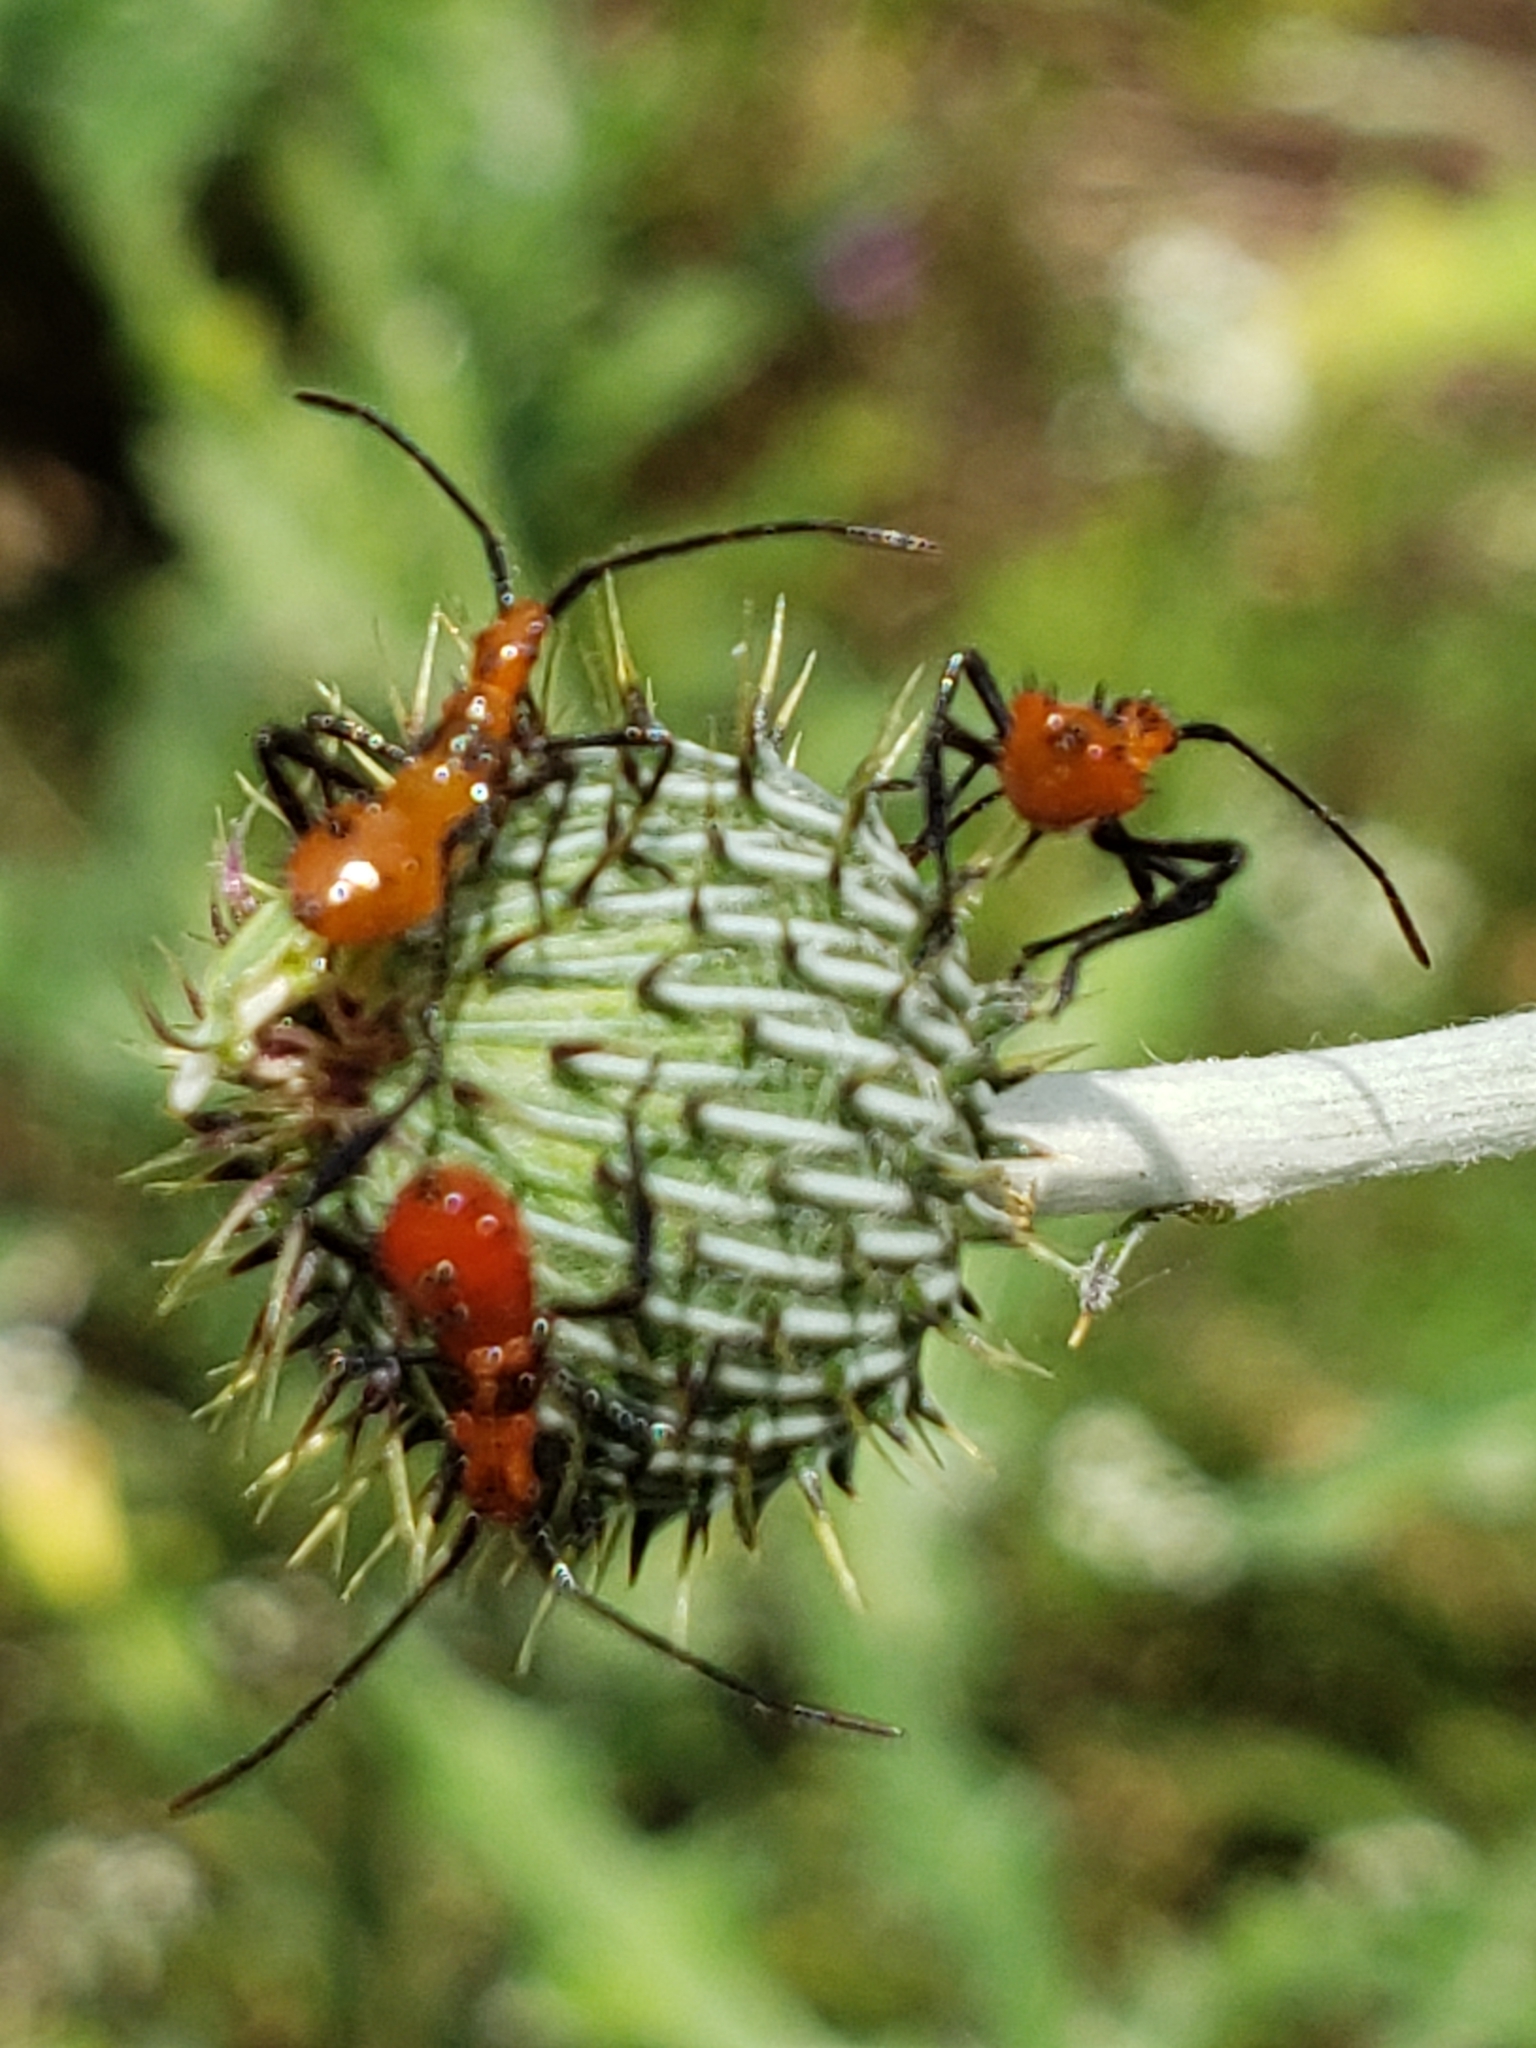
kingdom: Animalia
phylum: Arthropoda
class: Insecta
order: Hemiptera
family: Coreidae
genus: Leptoglossus
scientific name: Leptoglossus phyllopus
